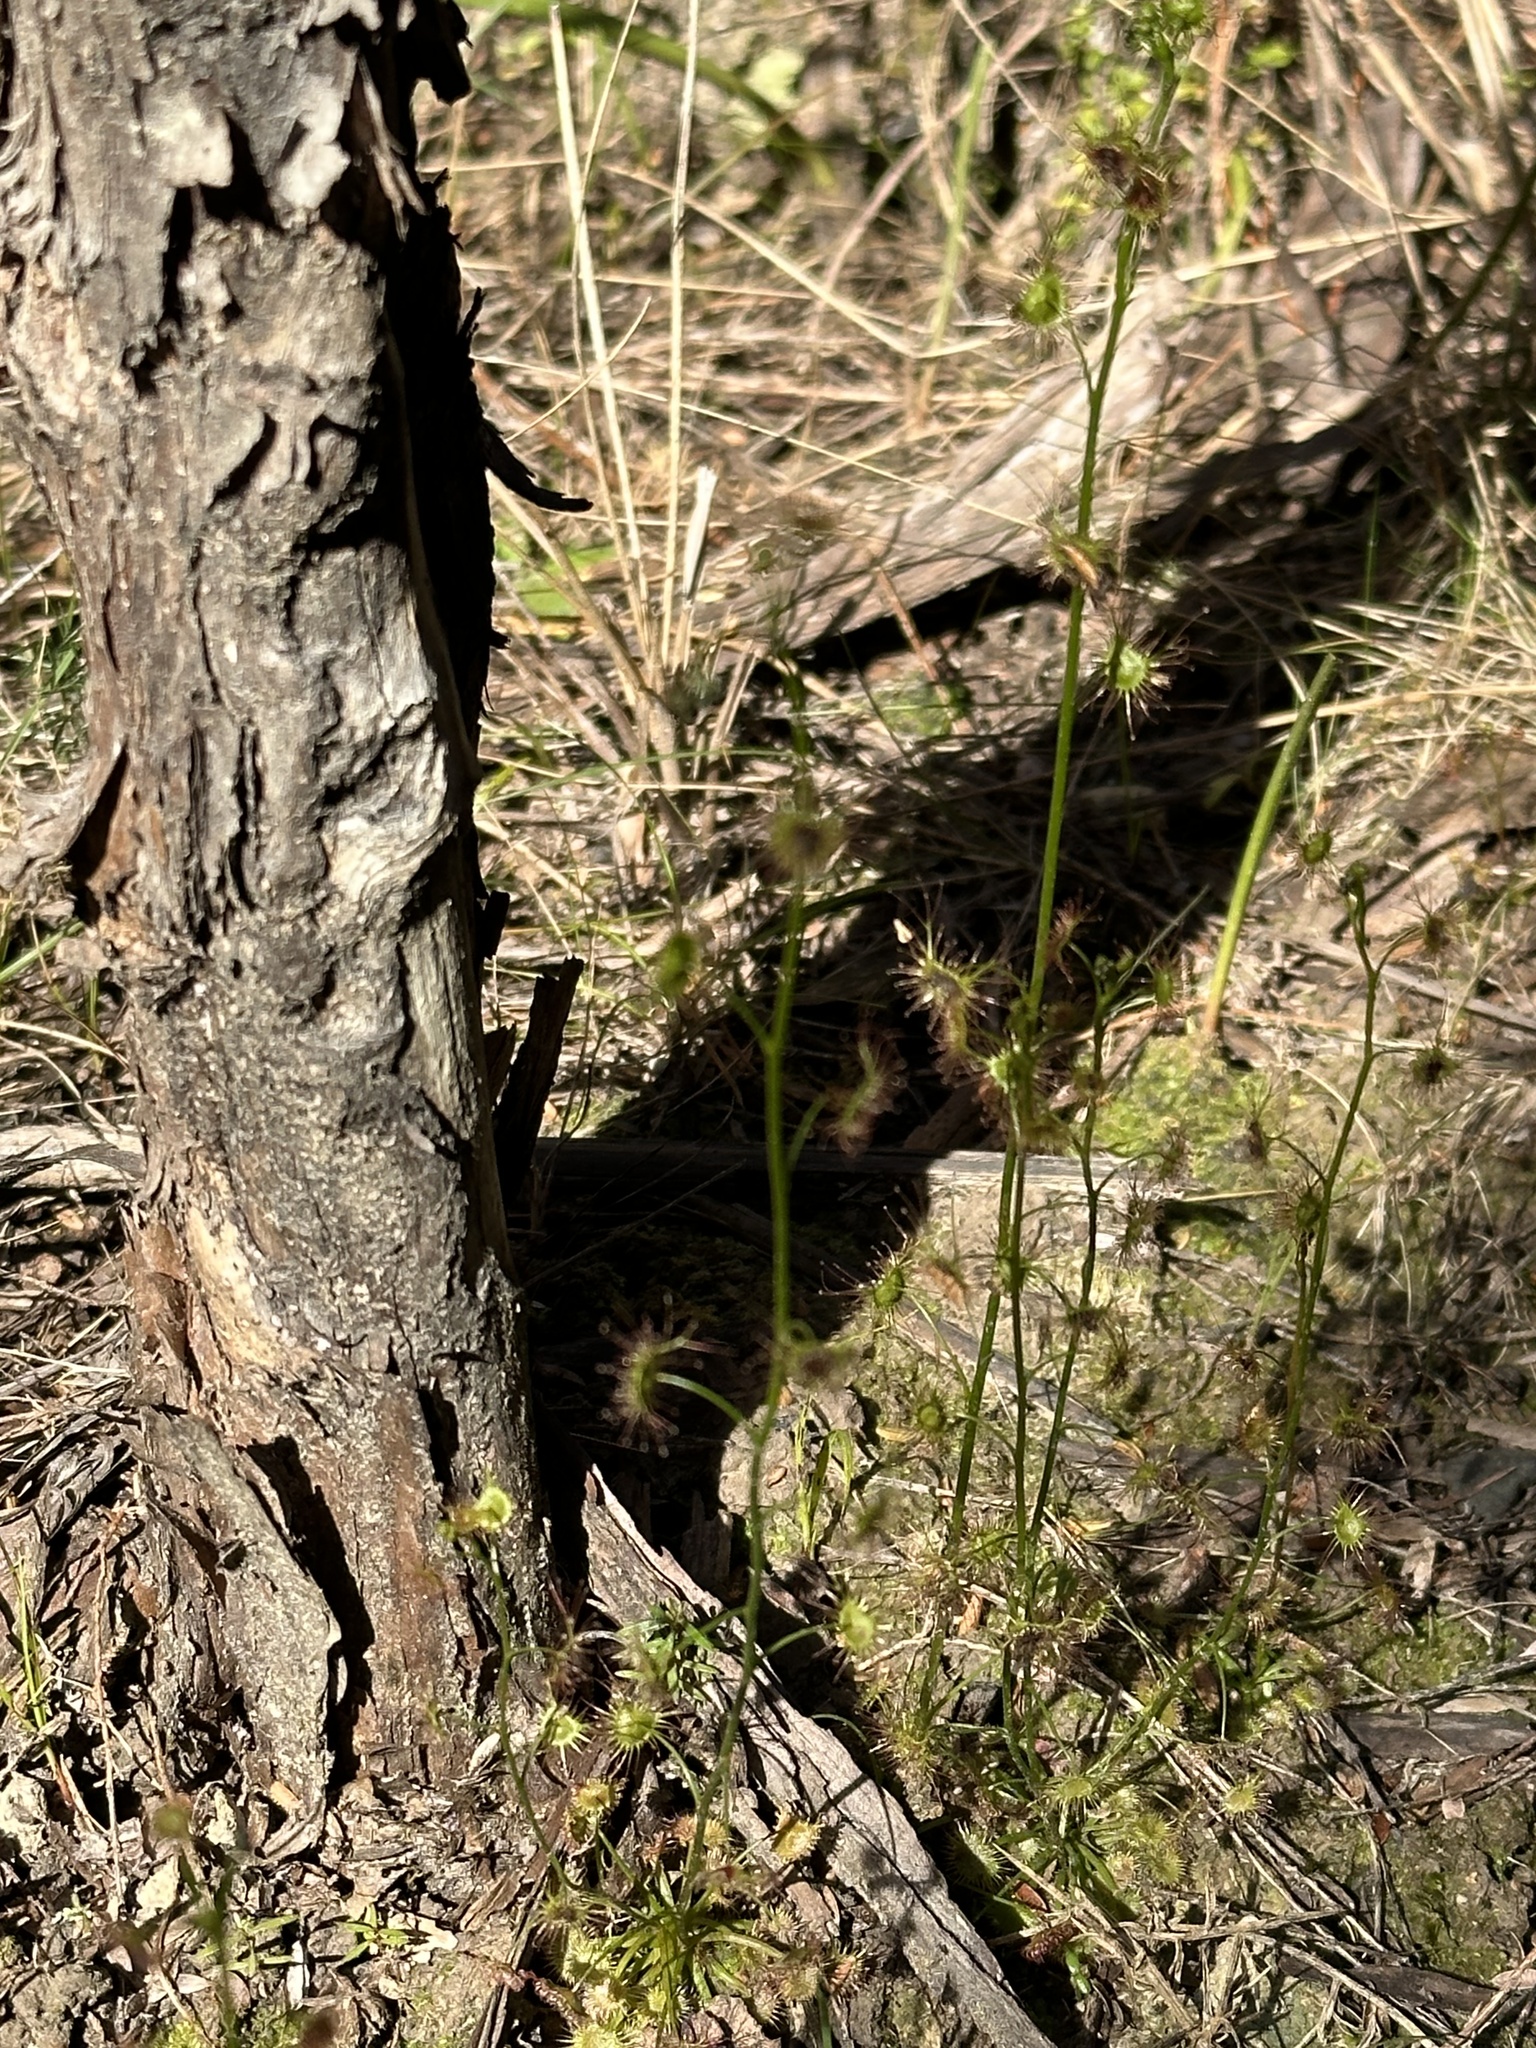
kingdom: Plantae
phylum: Tracheophyta
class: Magnoliopsida
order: Caryophyllales
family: Droseraceae
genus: Drosera
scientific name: Drosera peltata
